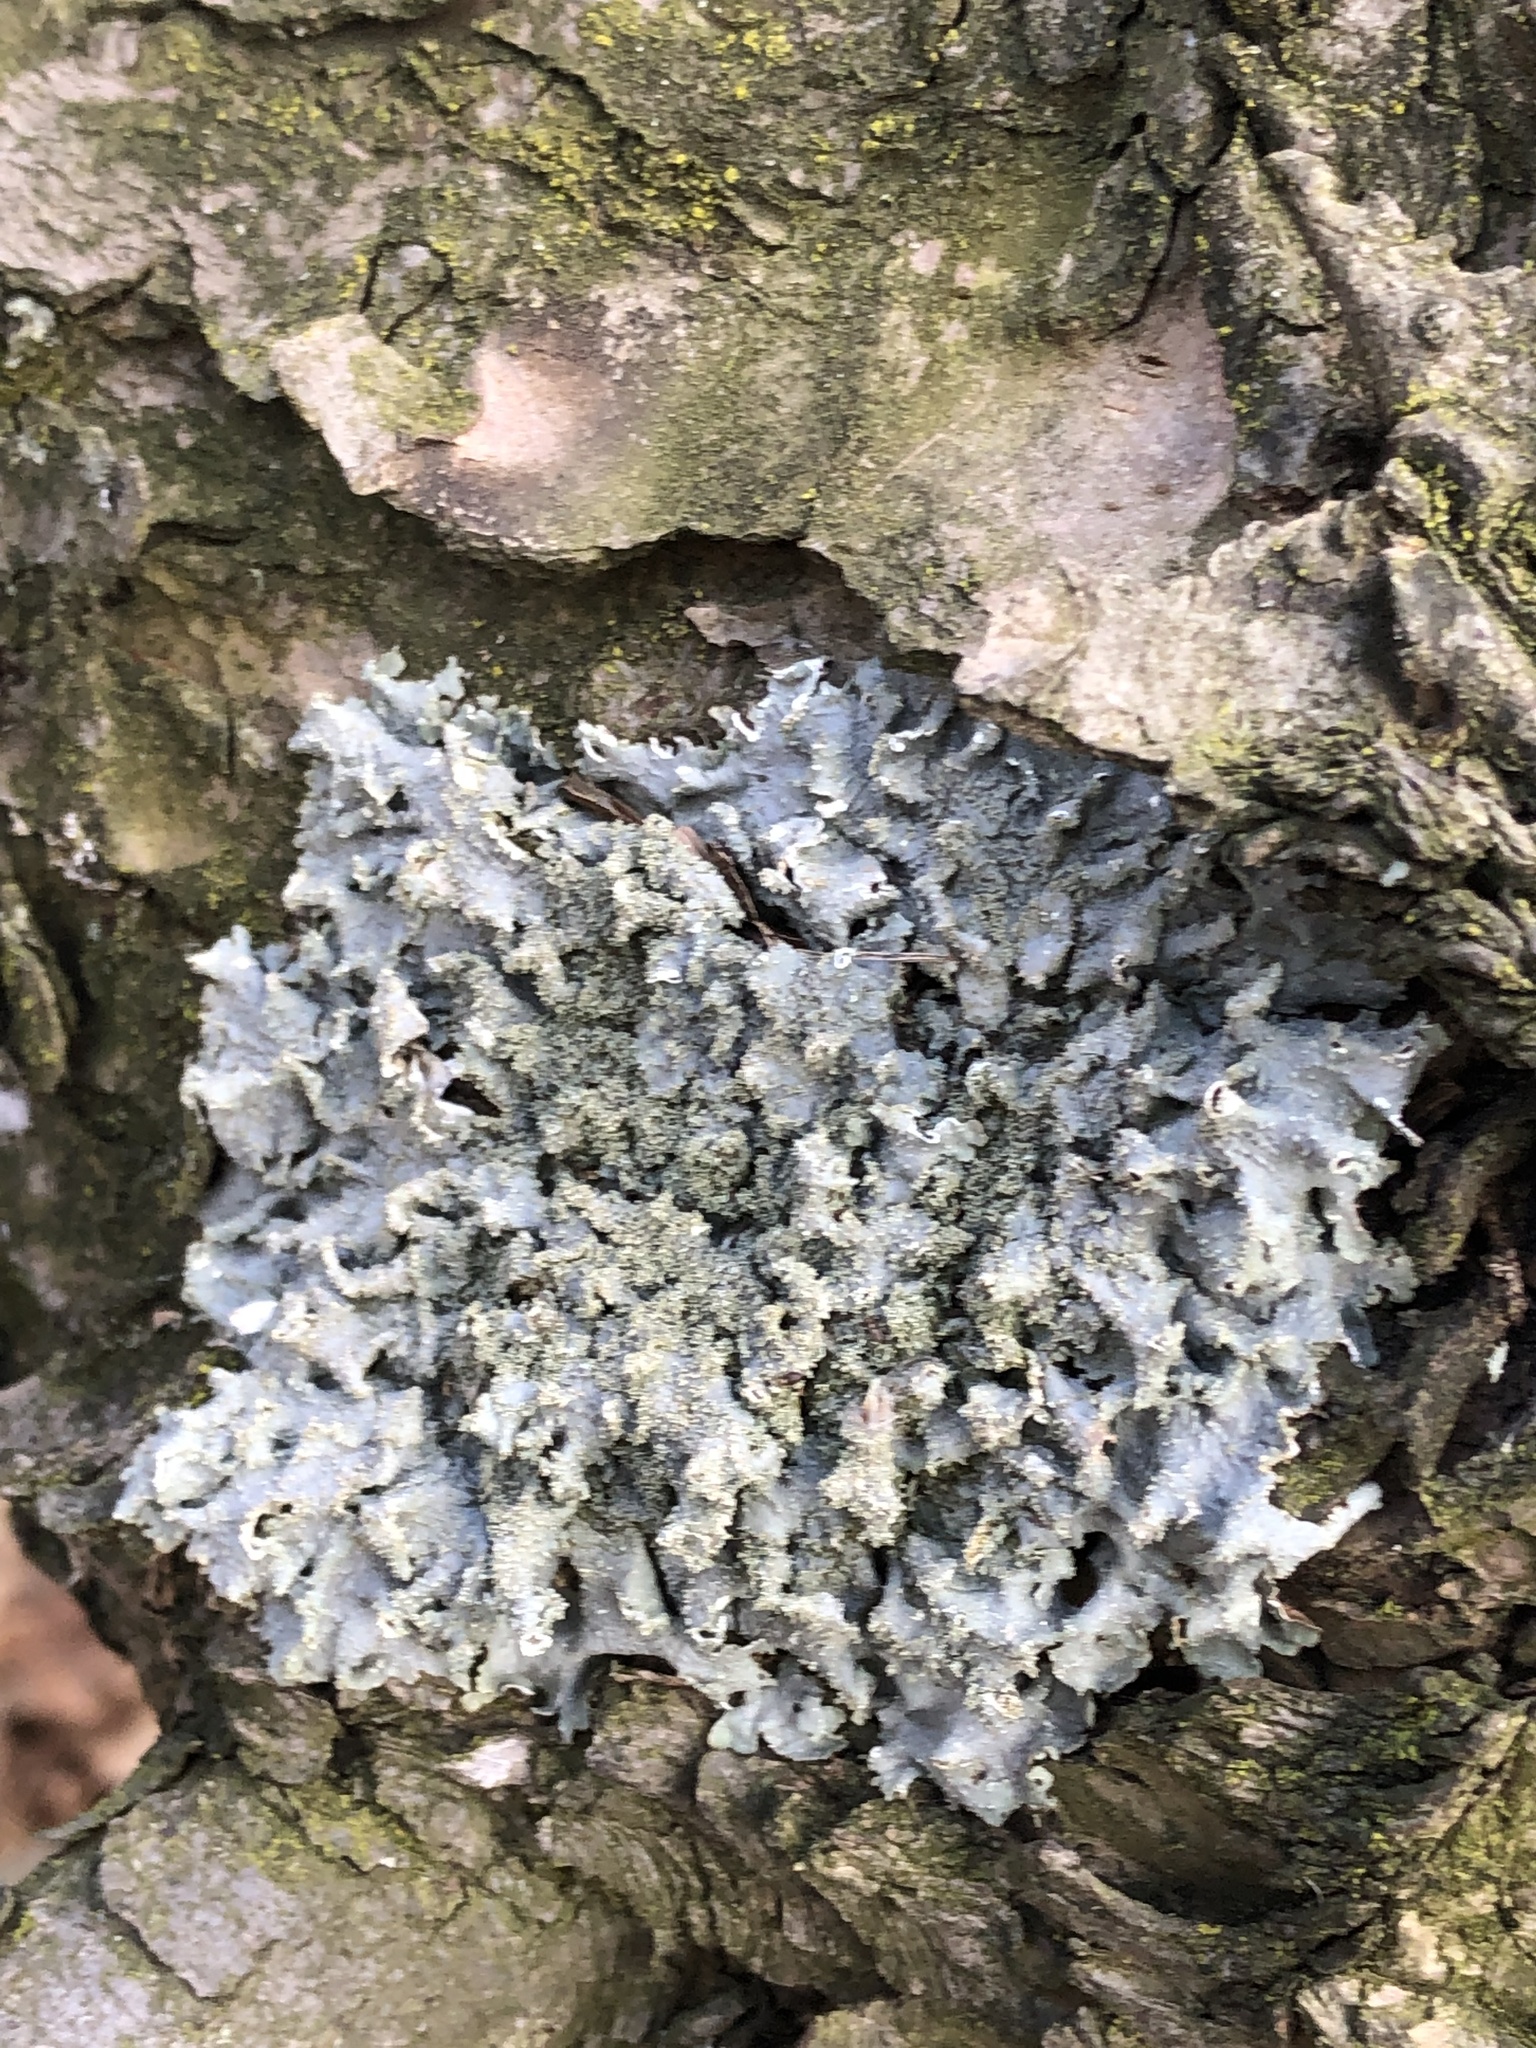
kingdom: Fungi
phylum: Ascomycota
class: Lecanoromycetes
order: Lecanorales
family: Parmeliaceae
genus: Punctelia
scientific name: Punctelia rudecta
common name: Rough speckled shield lichen
